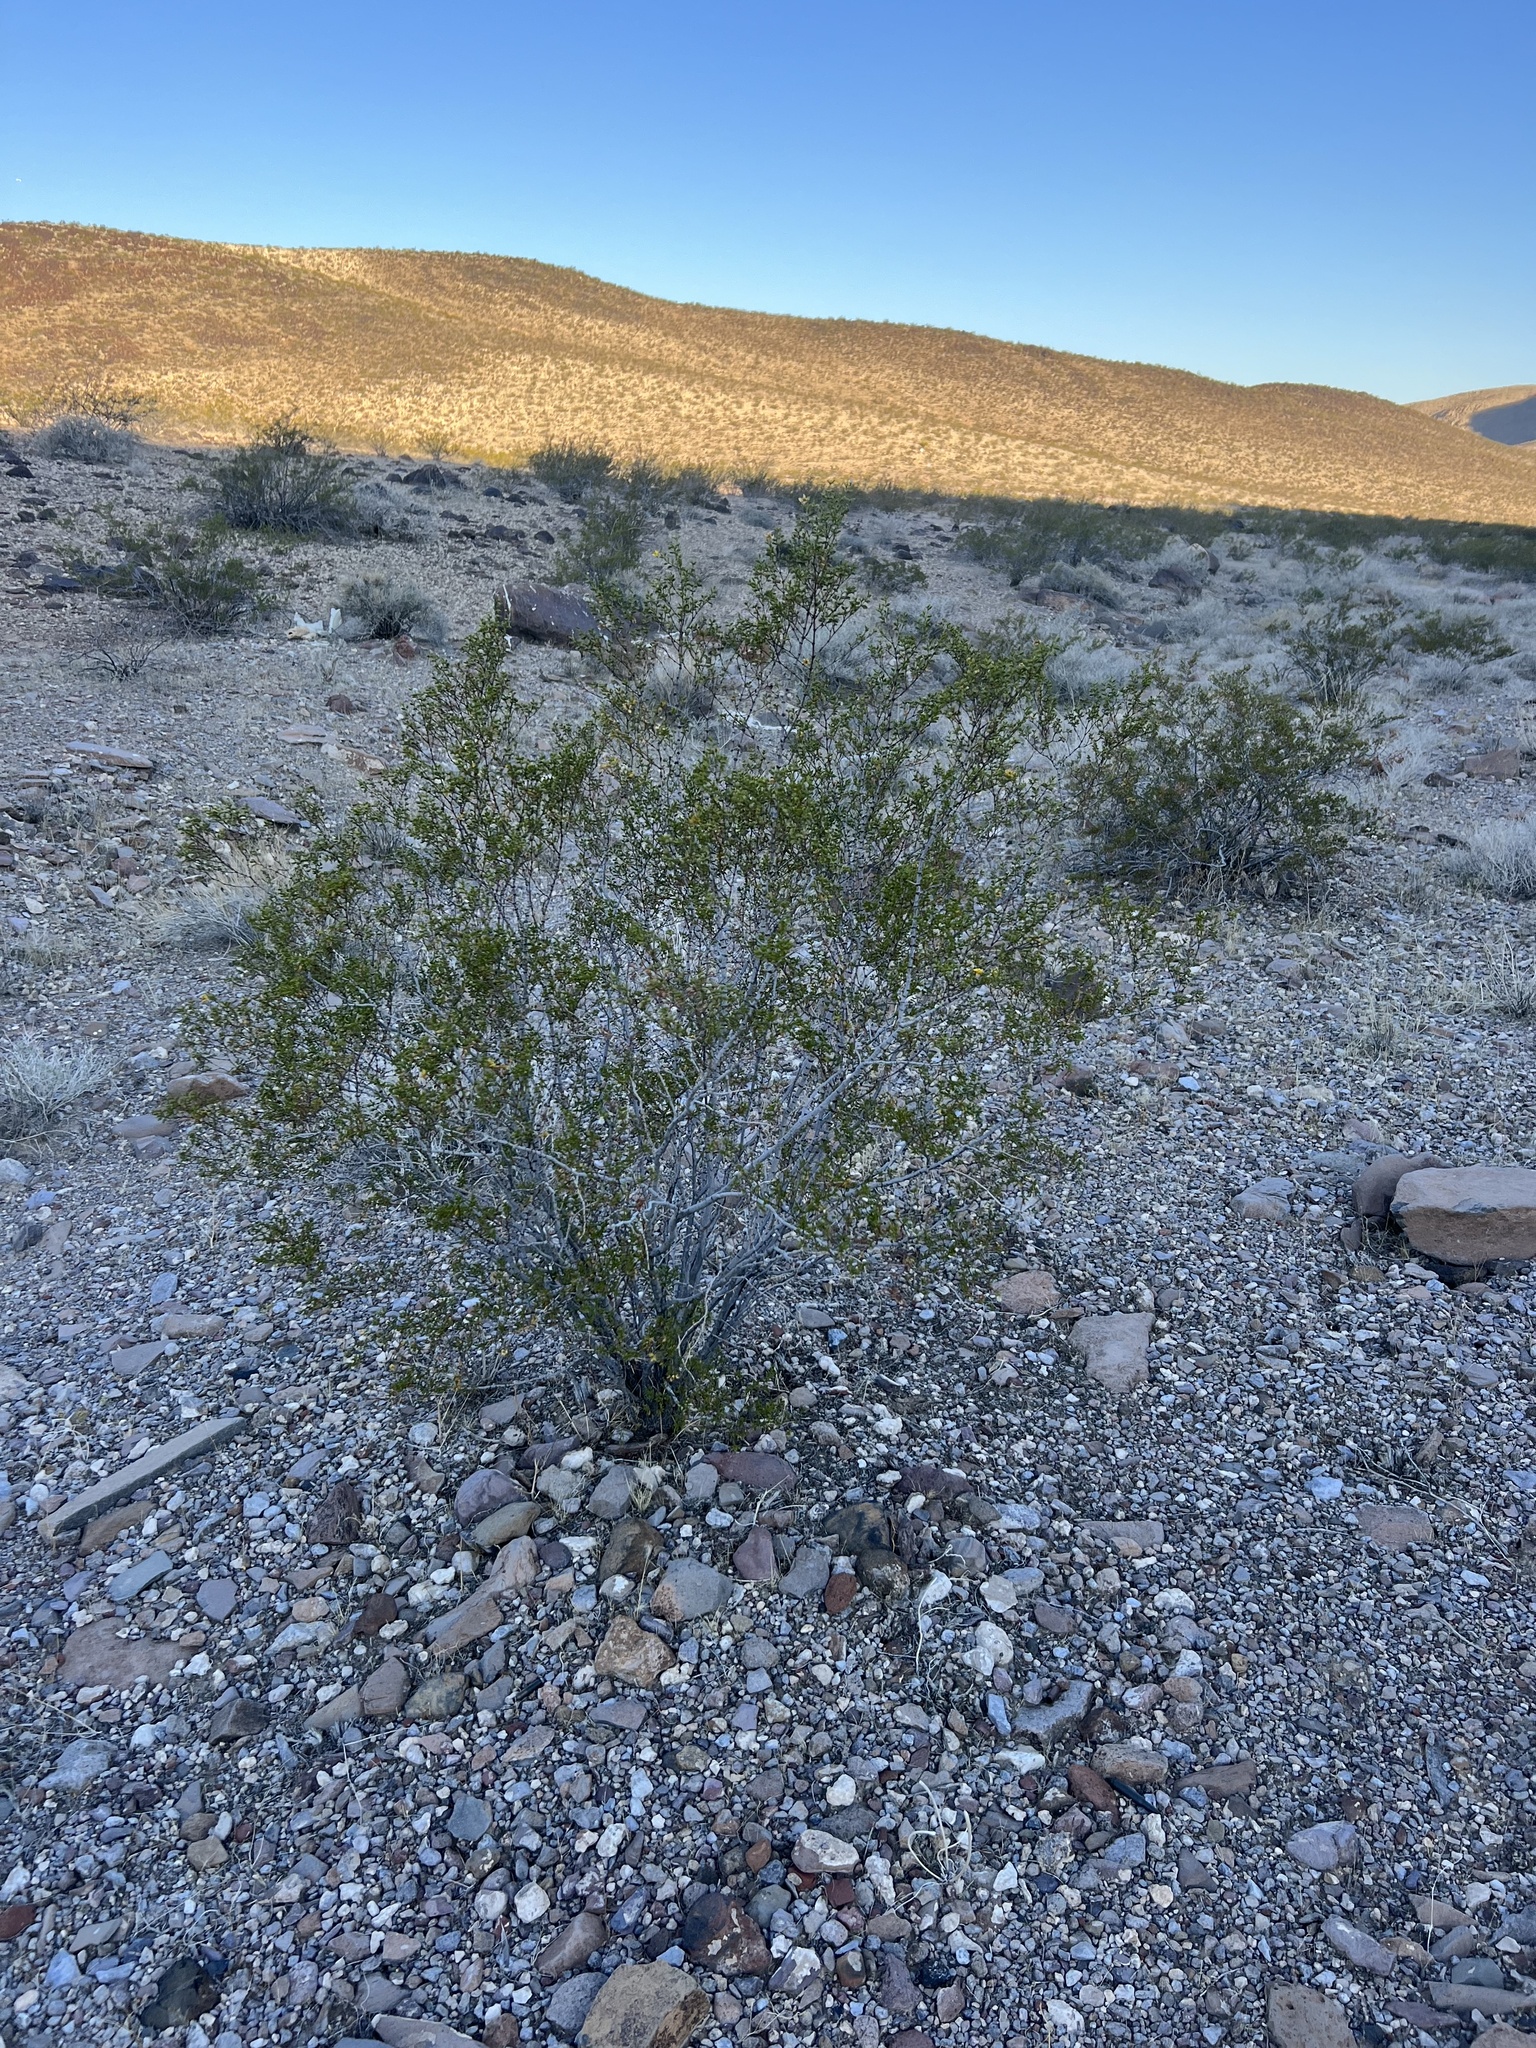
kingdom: Plantae
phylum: Tracheophyta
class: Magnoliopsida
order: Zygophyllales
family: Zygophyllaceae
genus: Larrea
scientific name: Larrea tridentata
